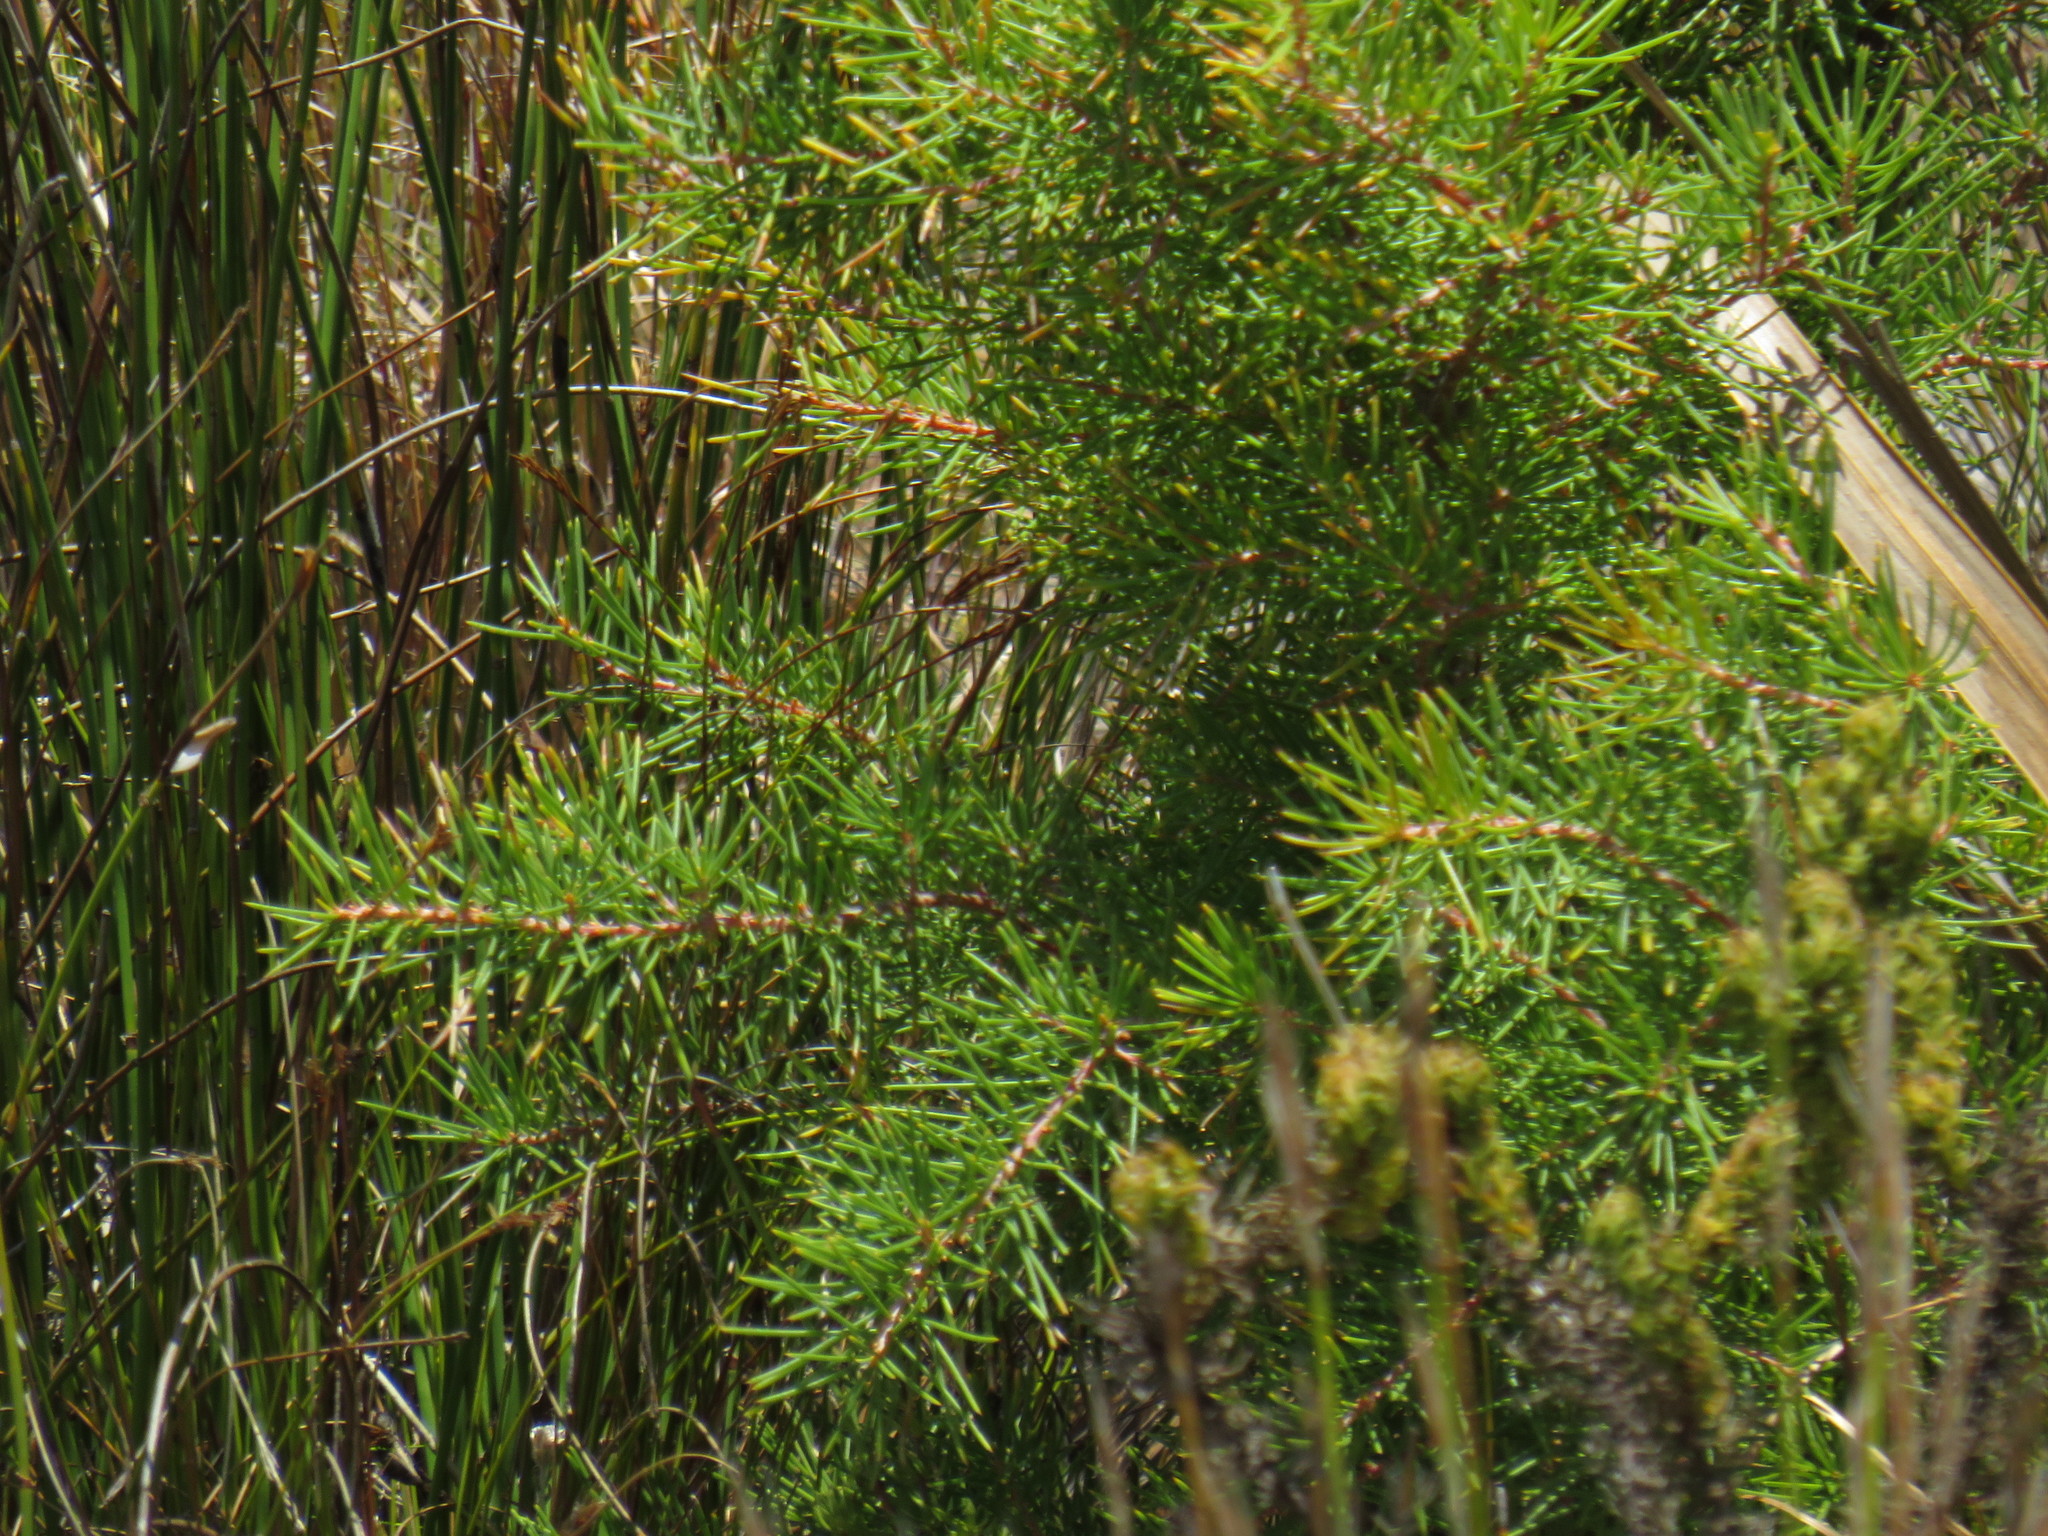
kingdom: Plantae
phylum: Tracheophyta
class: Magnoliopsida
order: Proteales
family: Proteaceae
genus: Hakea
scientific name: Hakea sericea
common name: Needle bush
